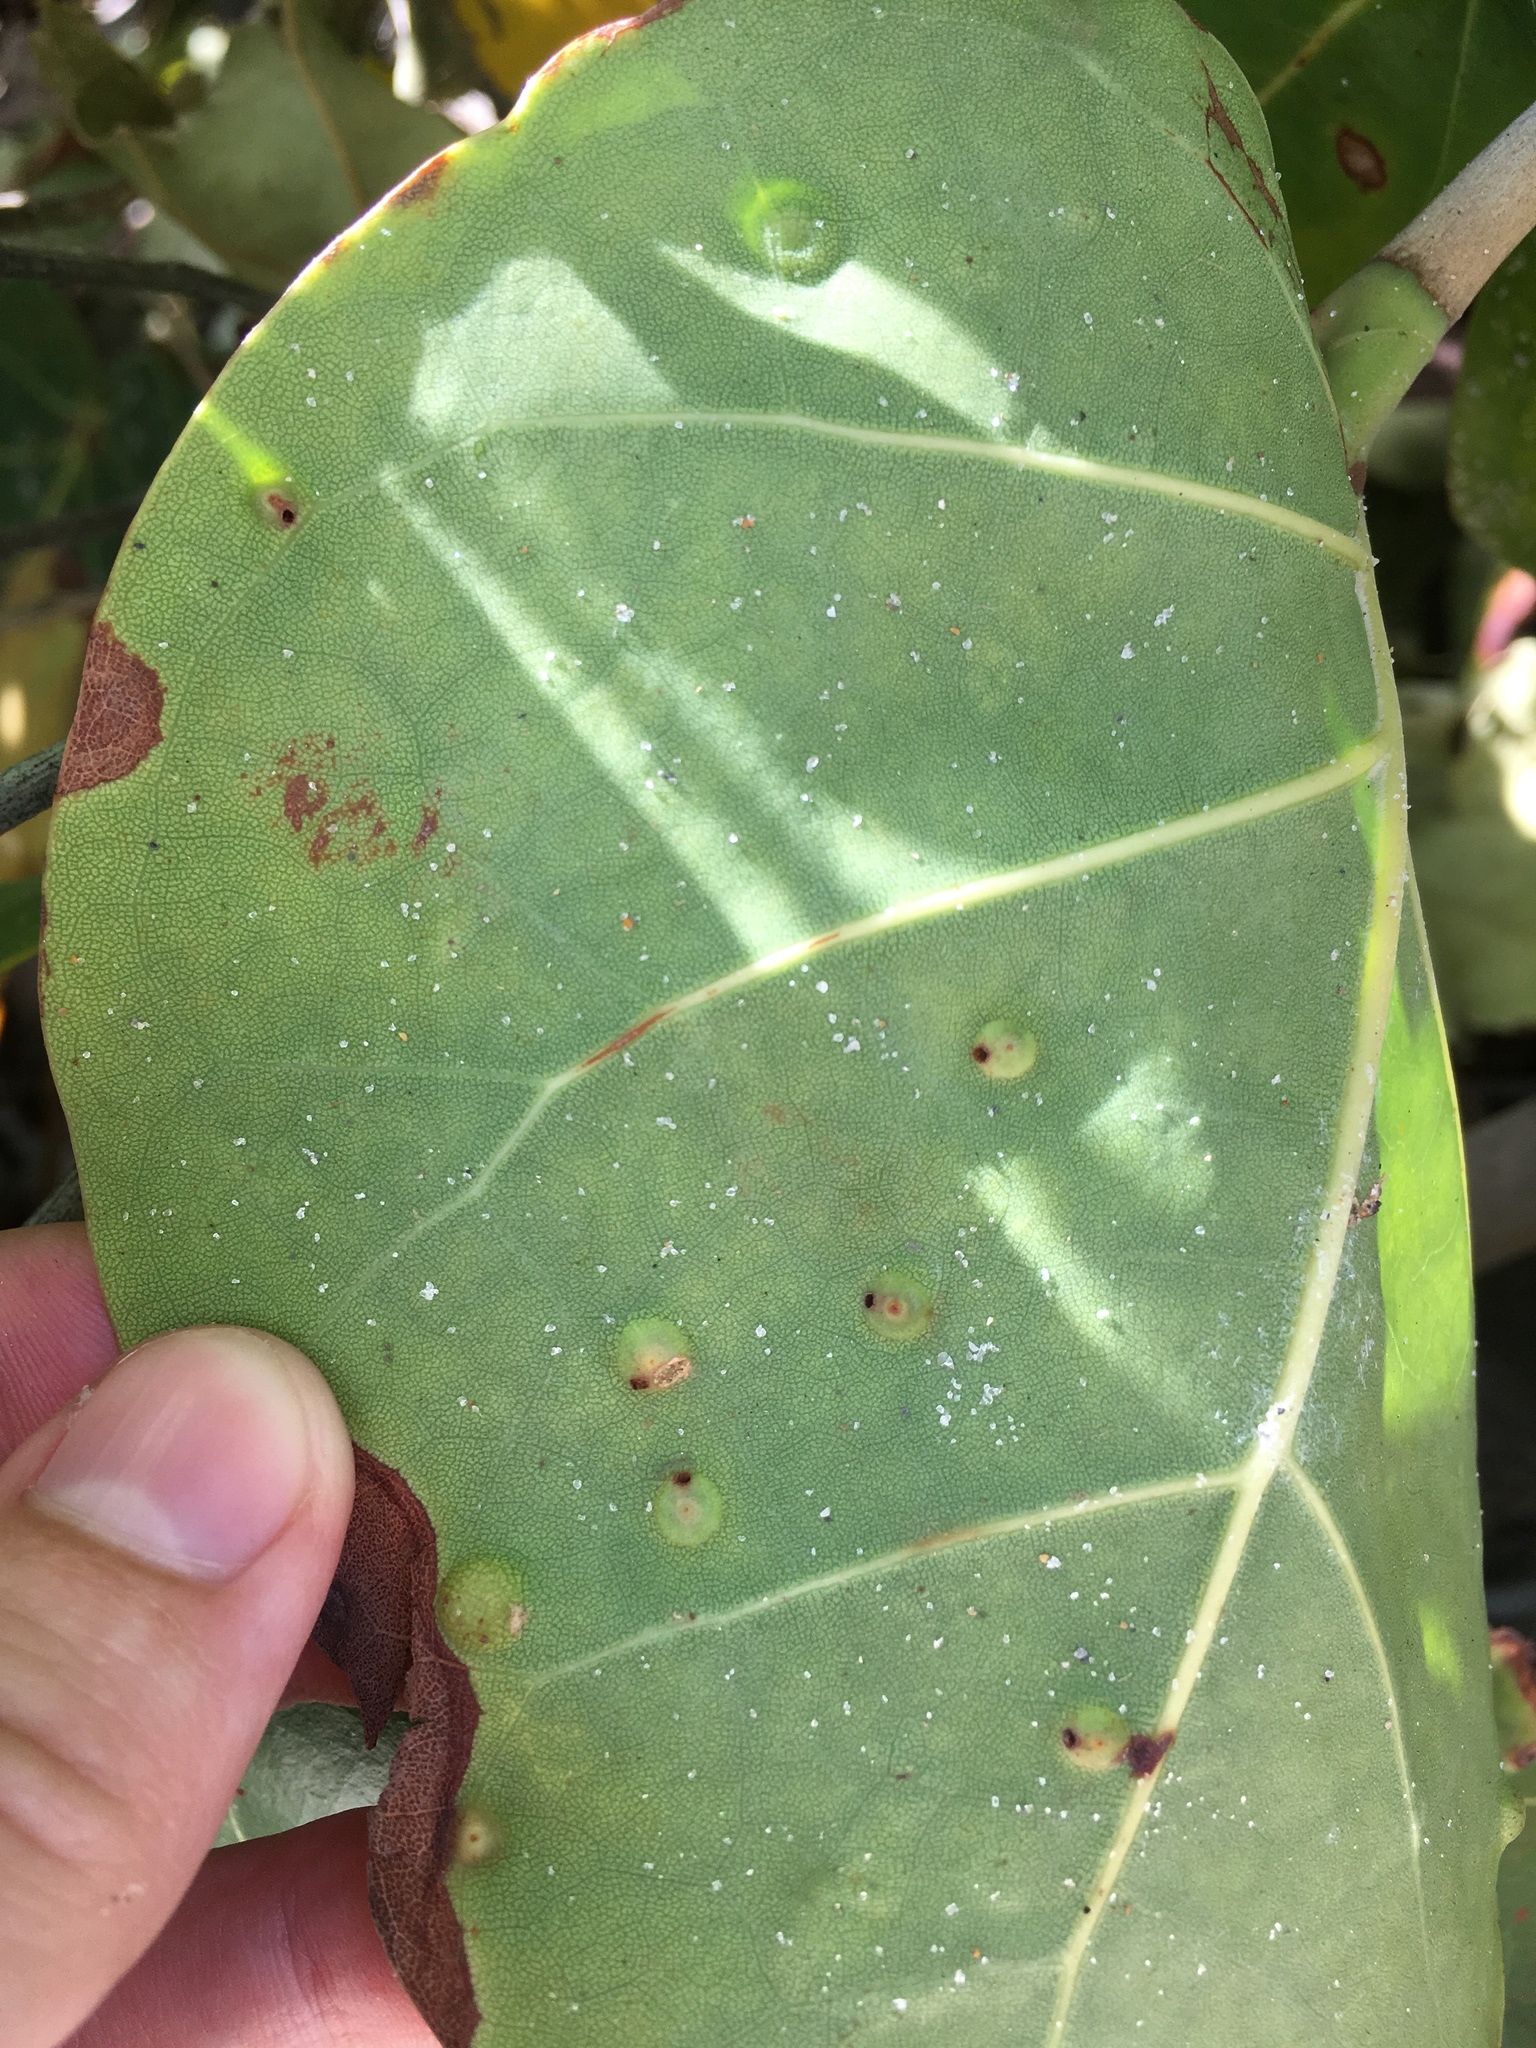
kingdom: Animalia
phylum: Arthropoda
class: Insecta
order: Diptera
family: Cecidomyiidae
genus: Ctenodactylomyia
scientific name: Ctenodactylomyia watsoni
